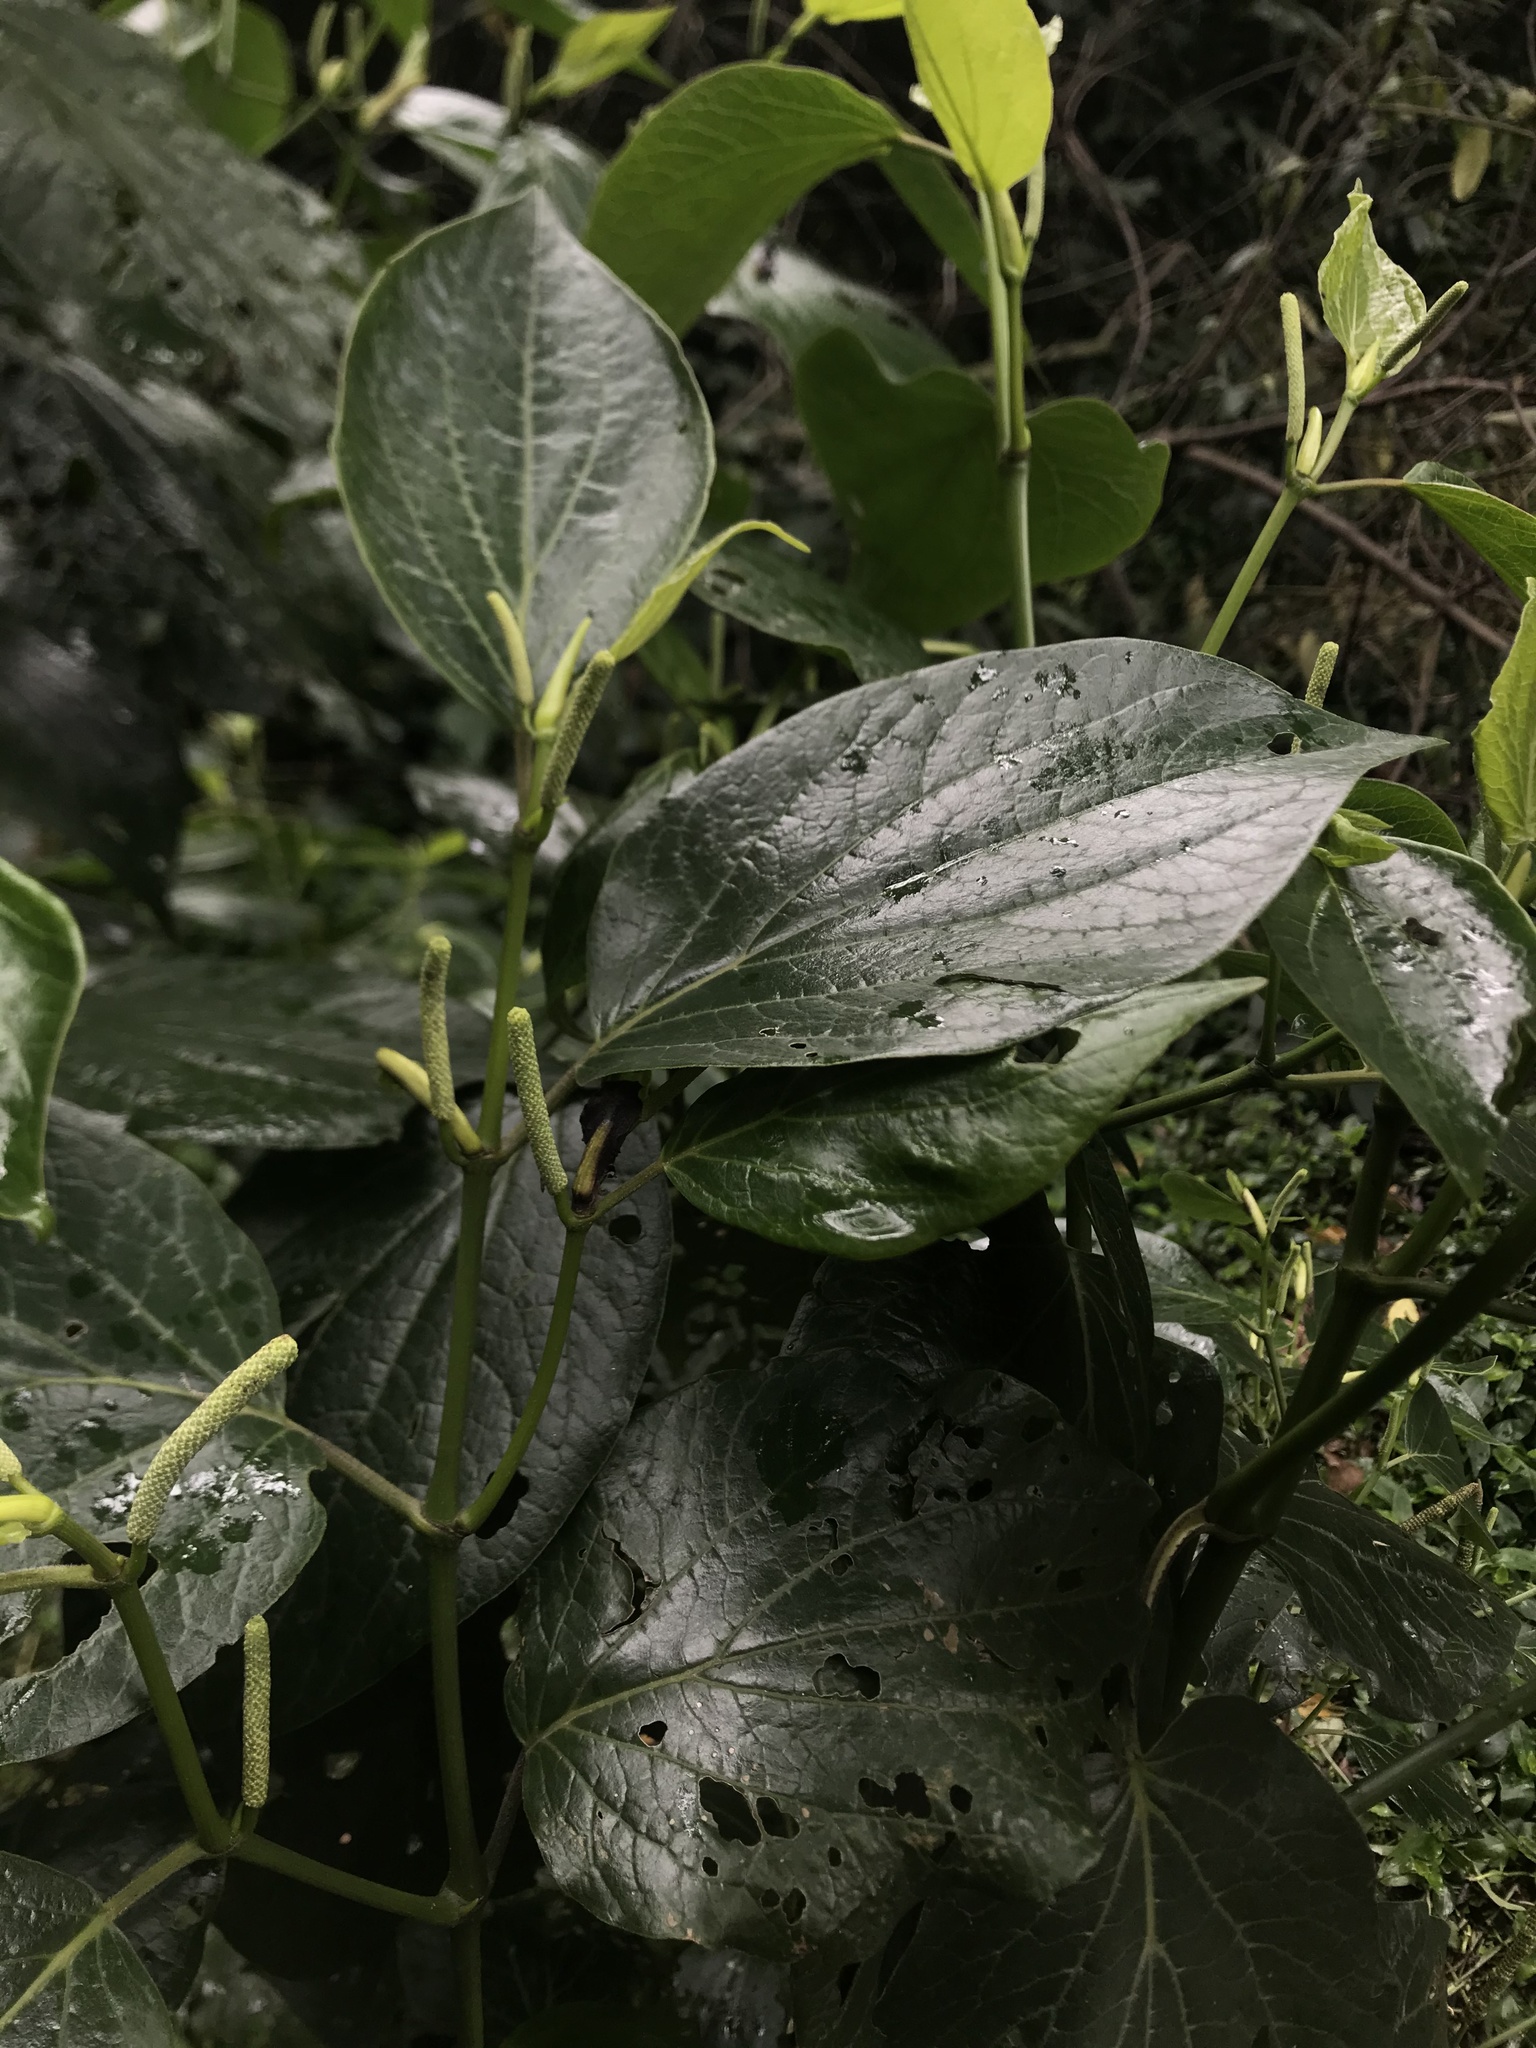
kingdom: Plantae
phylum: Tracheophyta
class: Magnoliopsida
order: Piperales
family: Piperaceae
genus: Piper
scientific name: Piper barbatum
